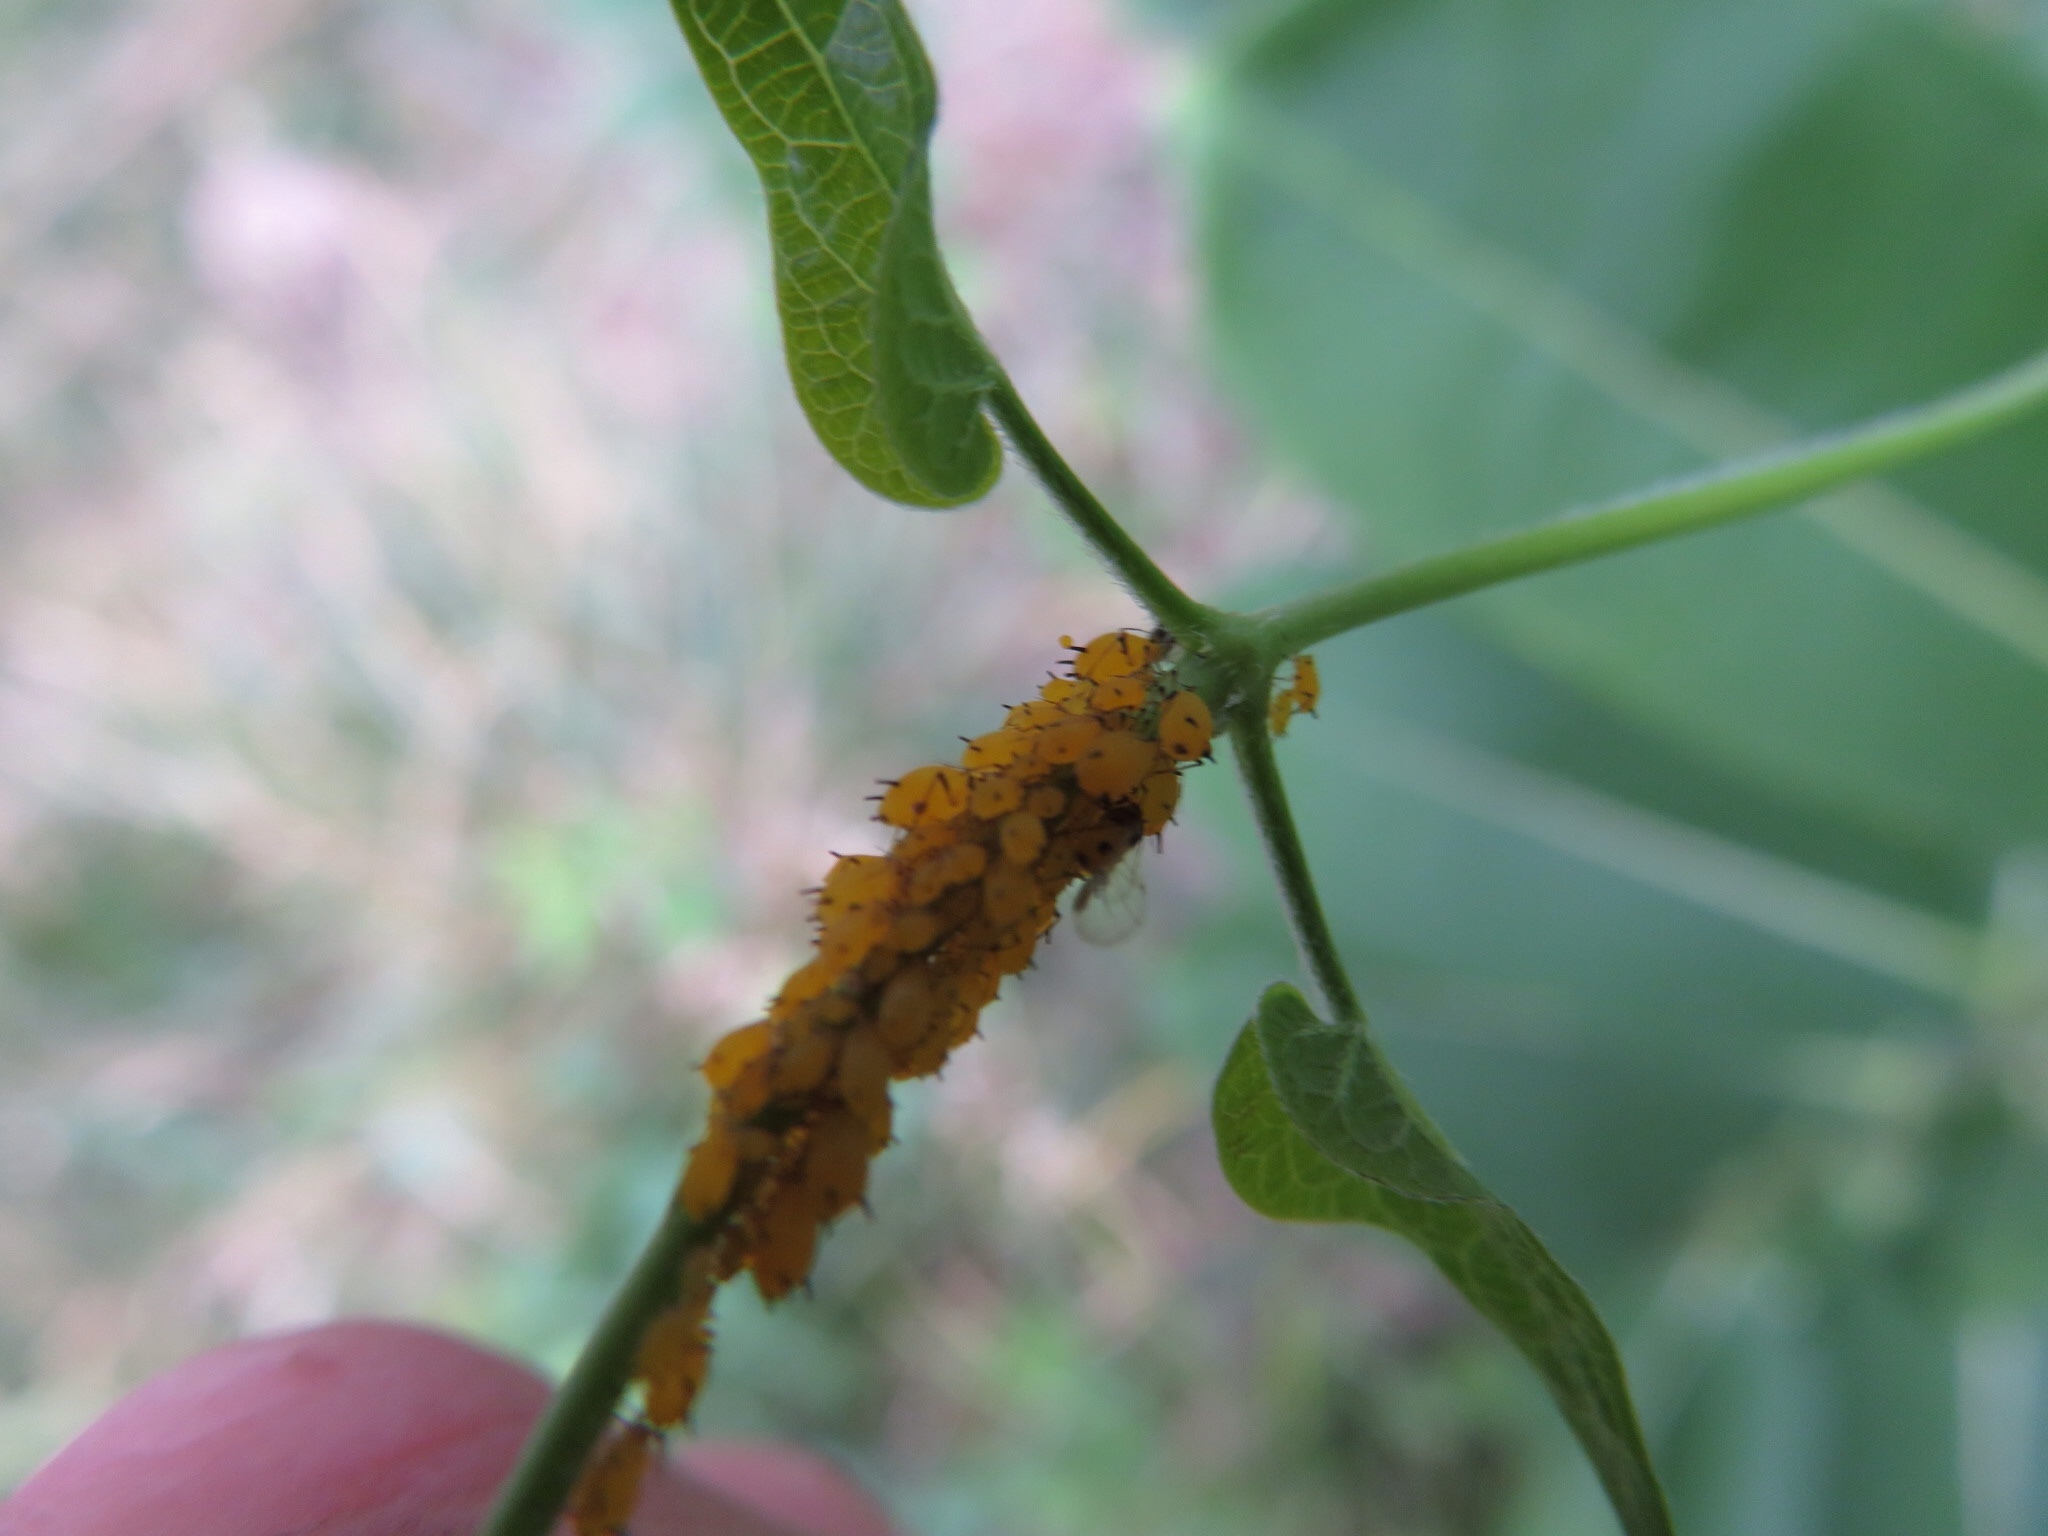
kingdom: Animalia
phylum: Arthropoda
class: Insecta
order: Hemiptera
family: Aphididae
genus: Aphis
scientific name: Aphis nerii
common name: Oleander aphid
